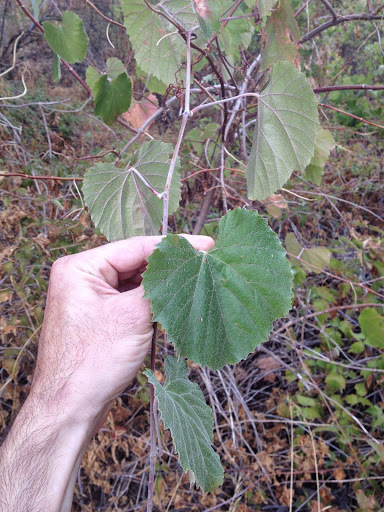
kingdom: Plantae
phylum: Tracheophyta
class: Magnoliopsida
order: Vitales
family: Vitaceae
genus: Vitis
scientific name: Vitis californica
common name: California wild grape
